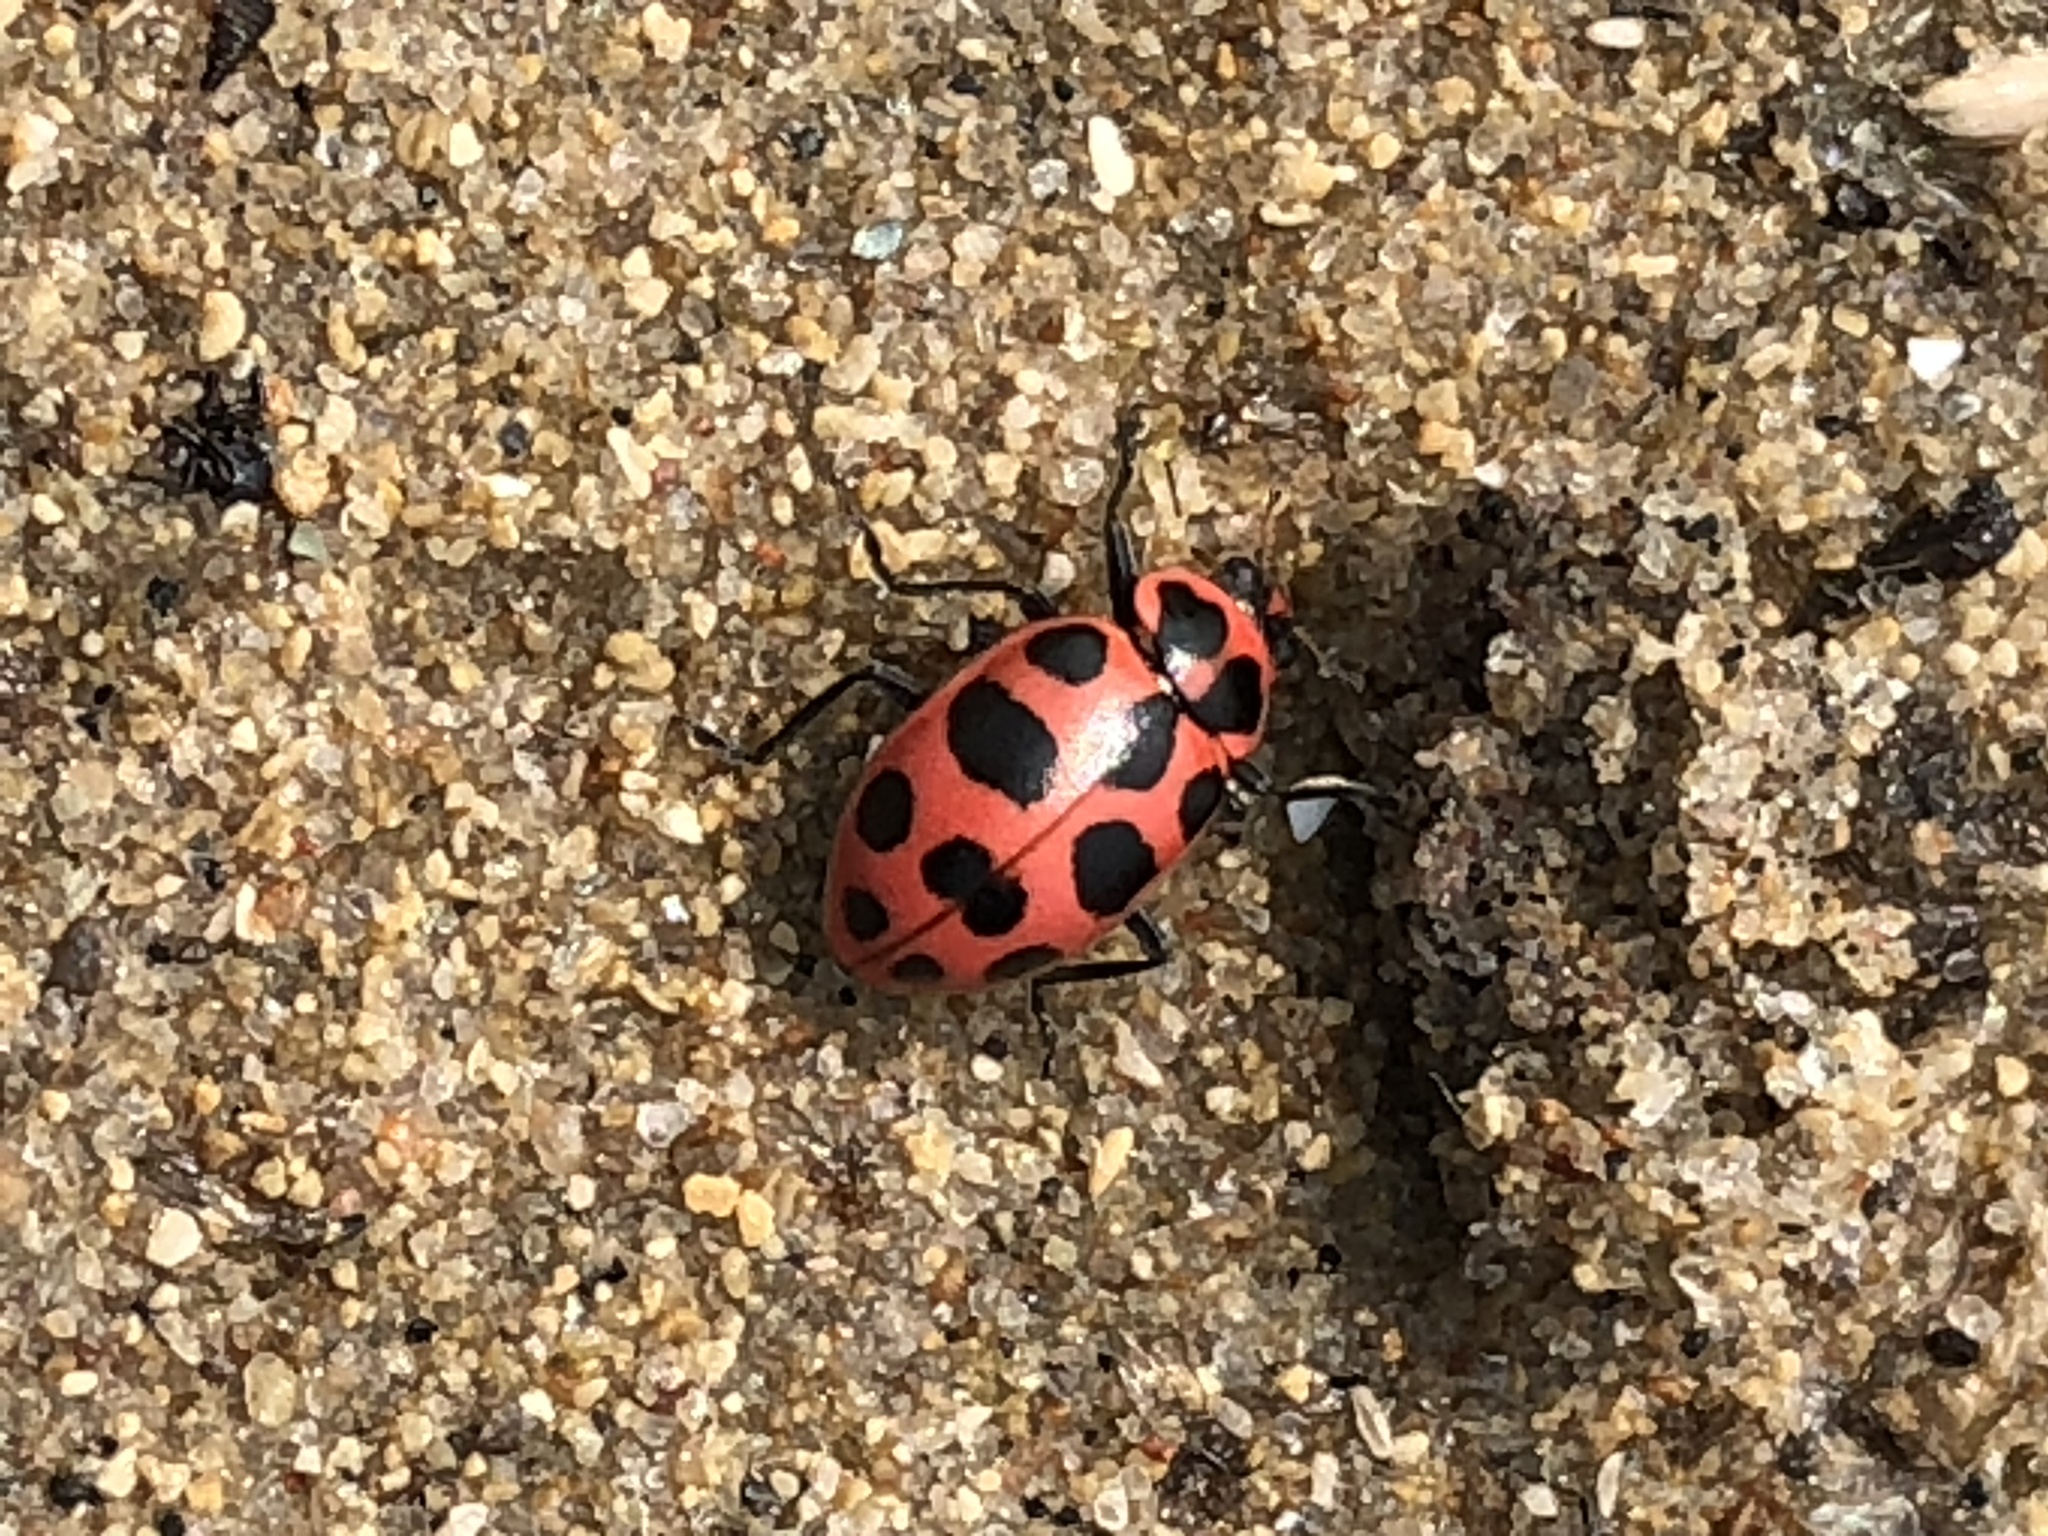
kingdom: Animalia
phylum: Arthropoda
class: Insecta
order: Coleoptera
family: Coccinellidae
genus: Coleomegilla
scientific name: Coleomegilla maculata
